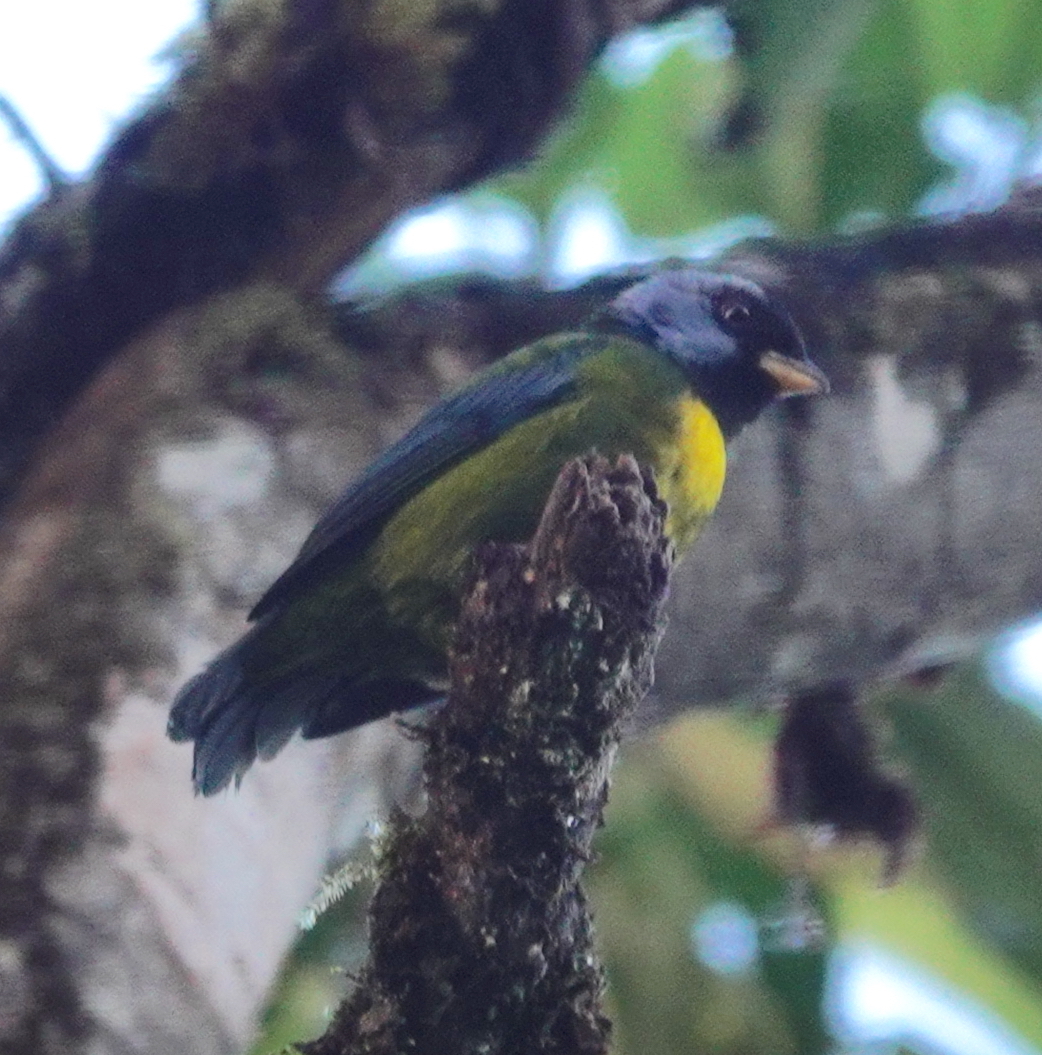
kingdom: Animalia
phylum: Chordata
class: Aves
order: Passeriformes
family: Thraupidae
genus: Bangsia
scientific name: Bangsia edwardsi
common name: Moss-backed tanager
